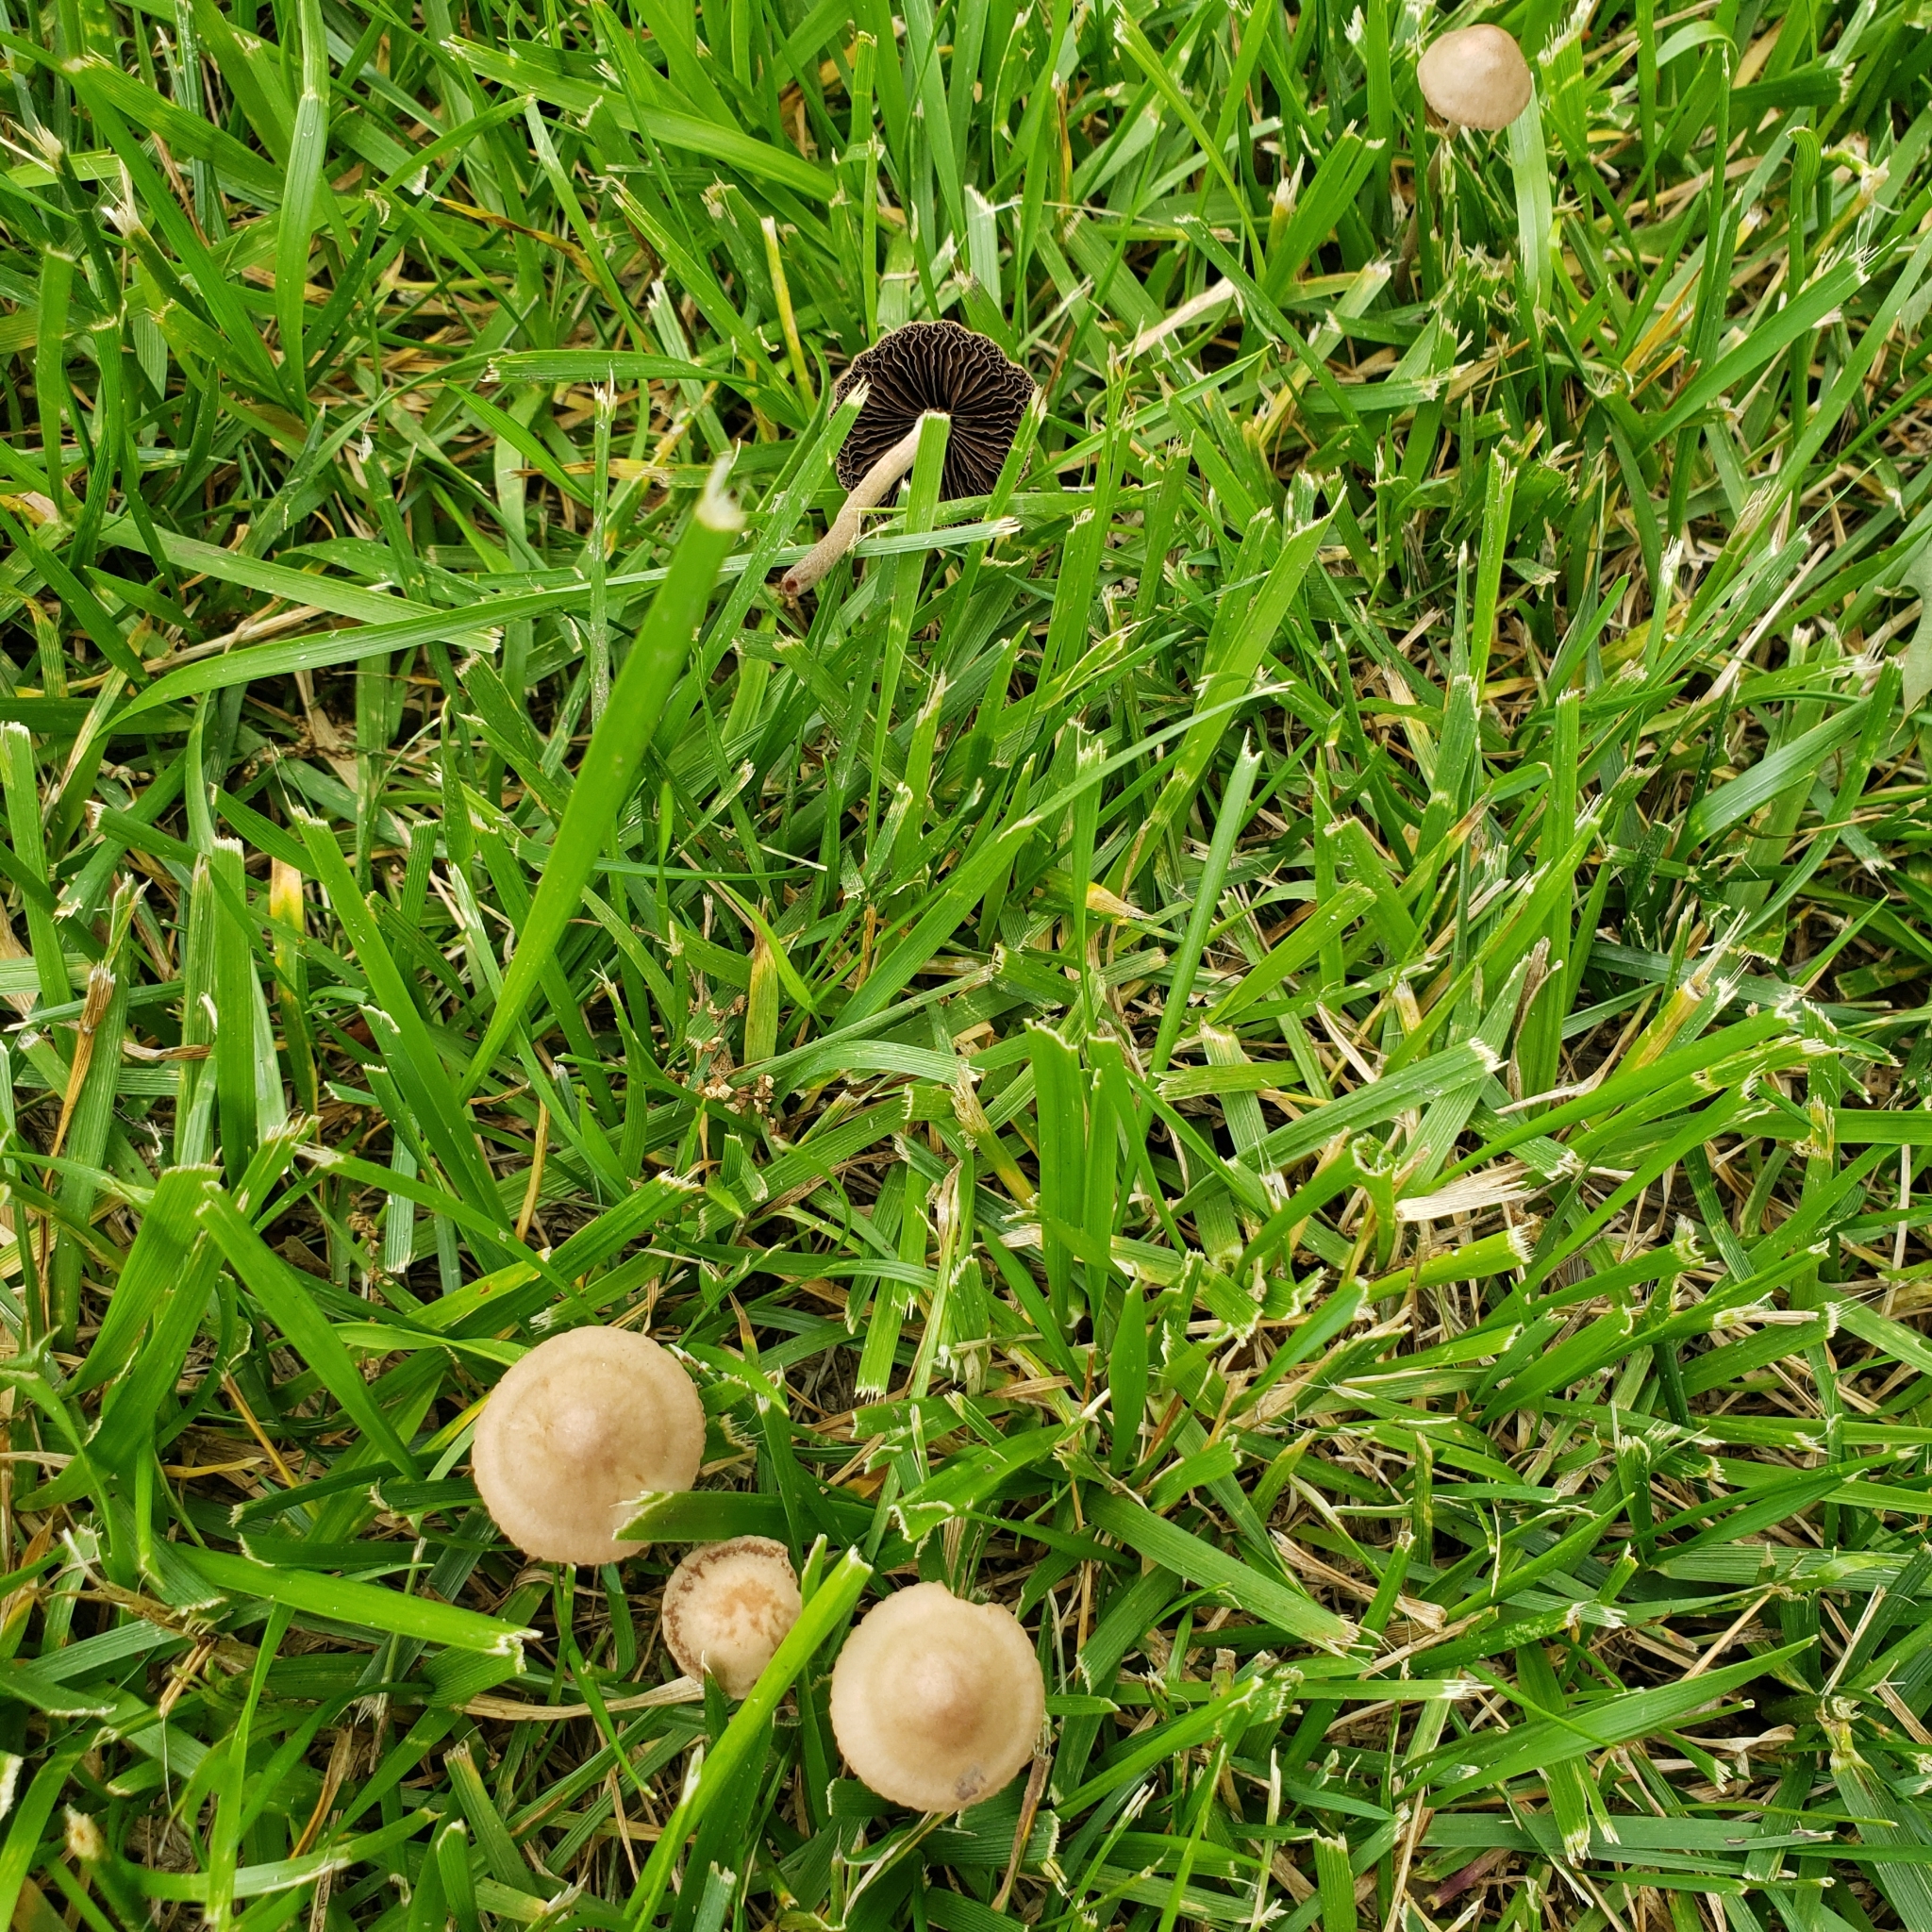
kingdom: Fungi
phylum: Basidiomycota
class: Agaricomycetes
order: Agaricales
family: Bolbitiaceae
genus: Panaeolina
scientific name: Panaeolina foenisecii
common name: Brown hay cap
